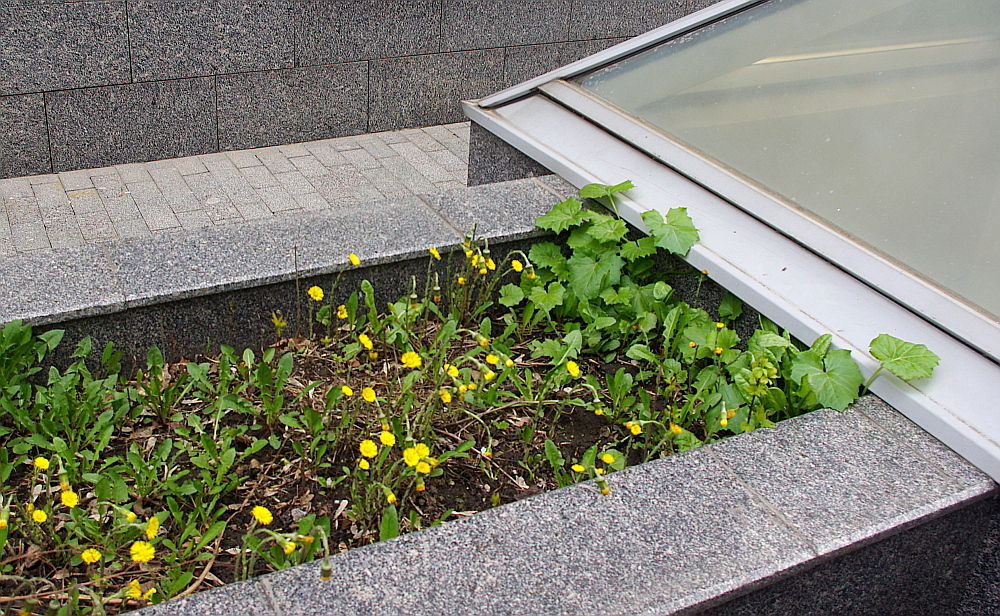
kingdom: Plantae
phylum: Tracheophyta
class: Magnoliopsida
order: Asterales
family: Asteraceae
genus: Tussilago
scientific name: Tussilago farfara
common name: Coltsfoot
